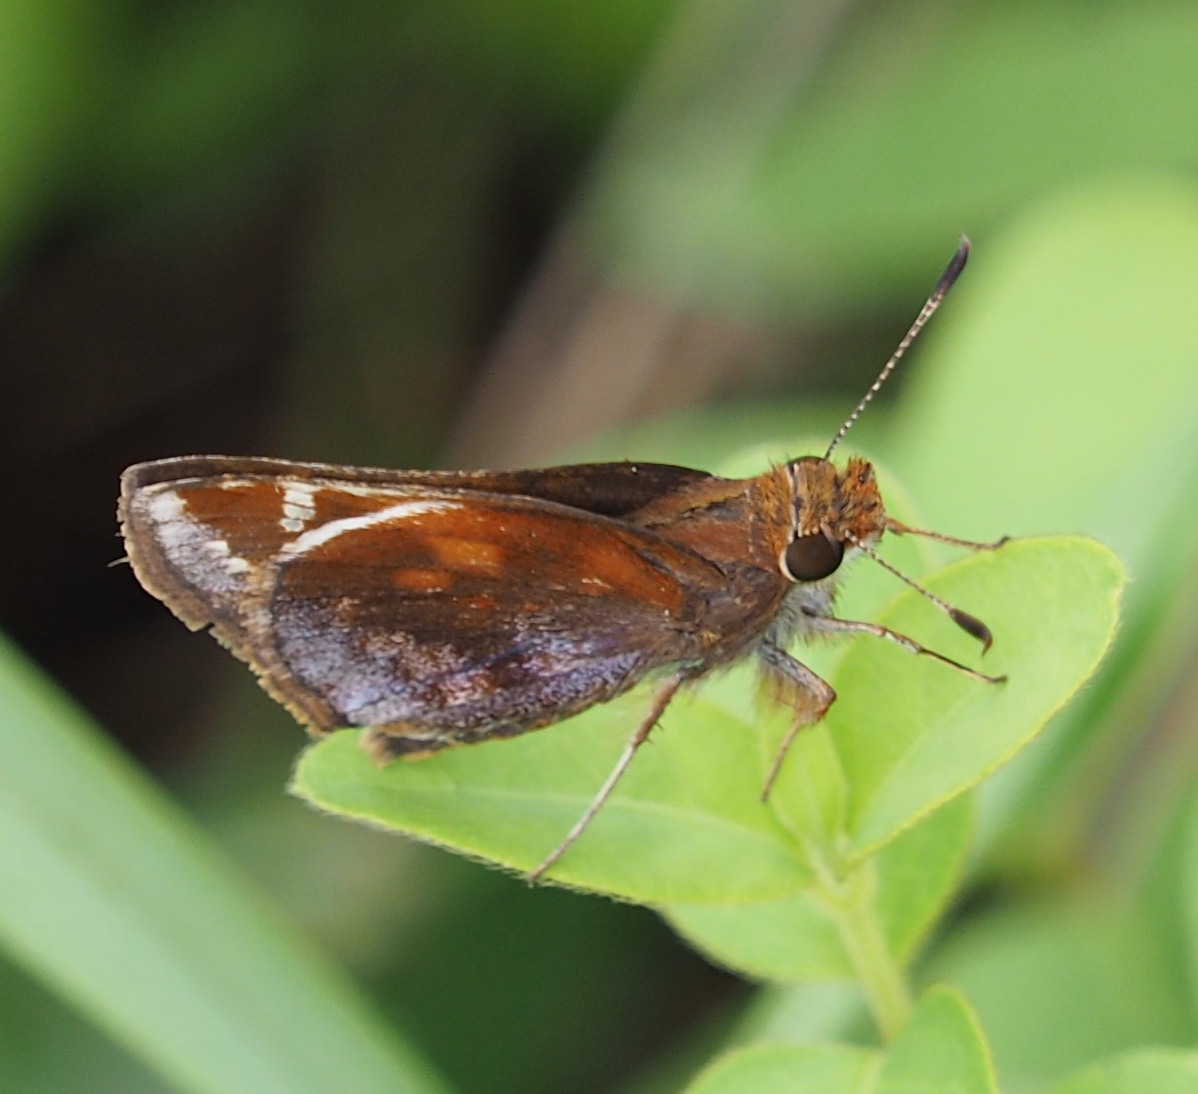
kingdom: Animalia
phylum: Arthropoda
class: Insecta
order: Lepidoptera
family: Hesperiidae
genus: Lon
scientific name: Lon zabulon
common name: Zabulon skipper
